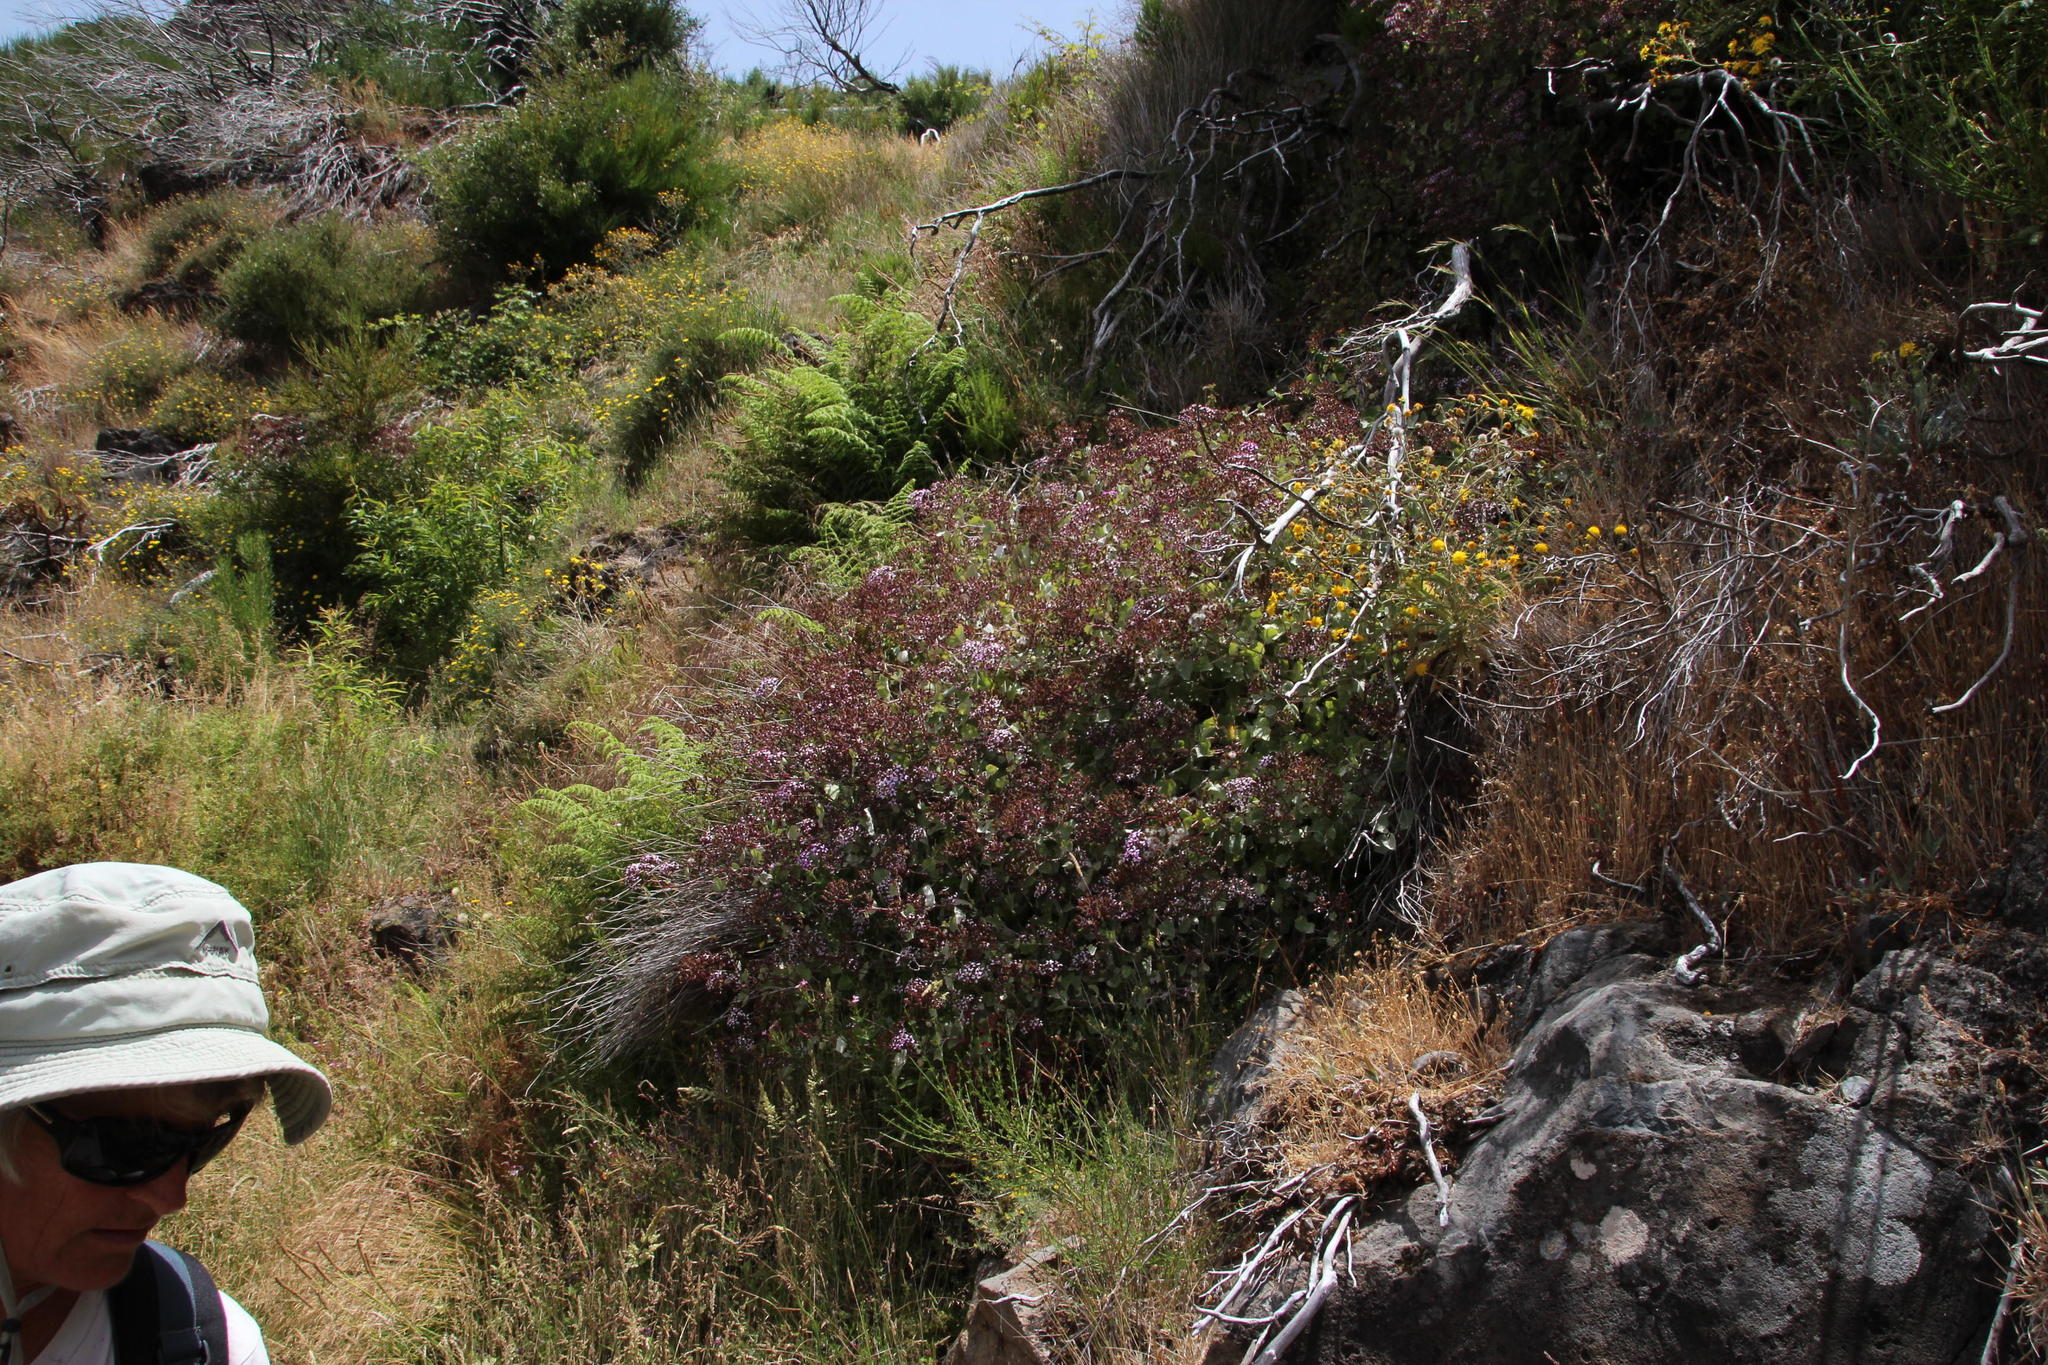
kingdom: Plantae
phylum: Tracheophyta
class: Magnoliopsida
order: Asterales
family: Asteraceae
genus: Pericallis
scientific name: Pericallis aurita
